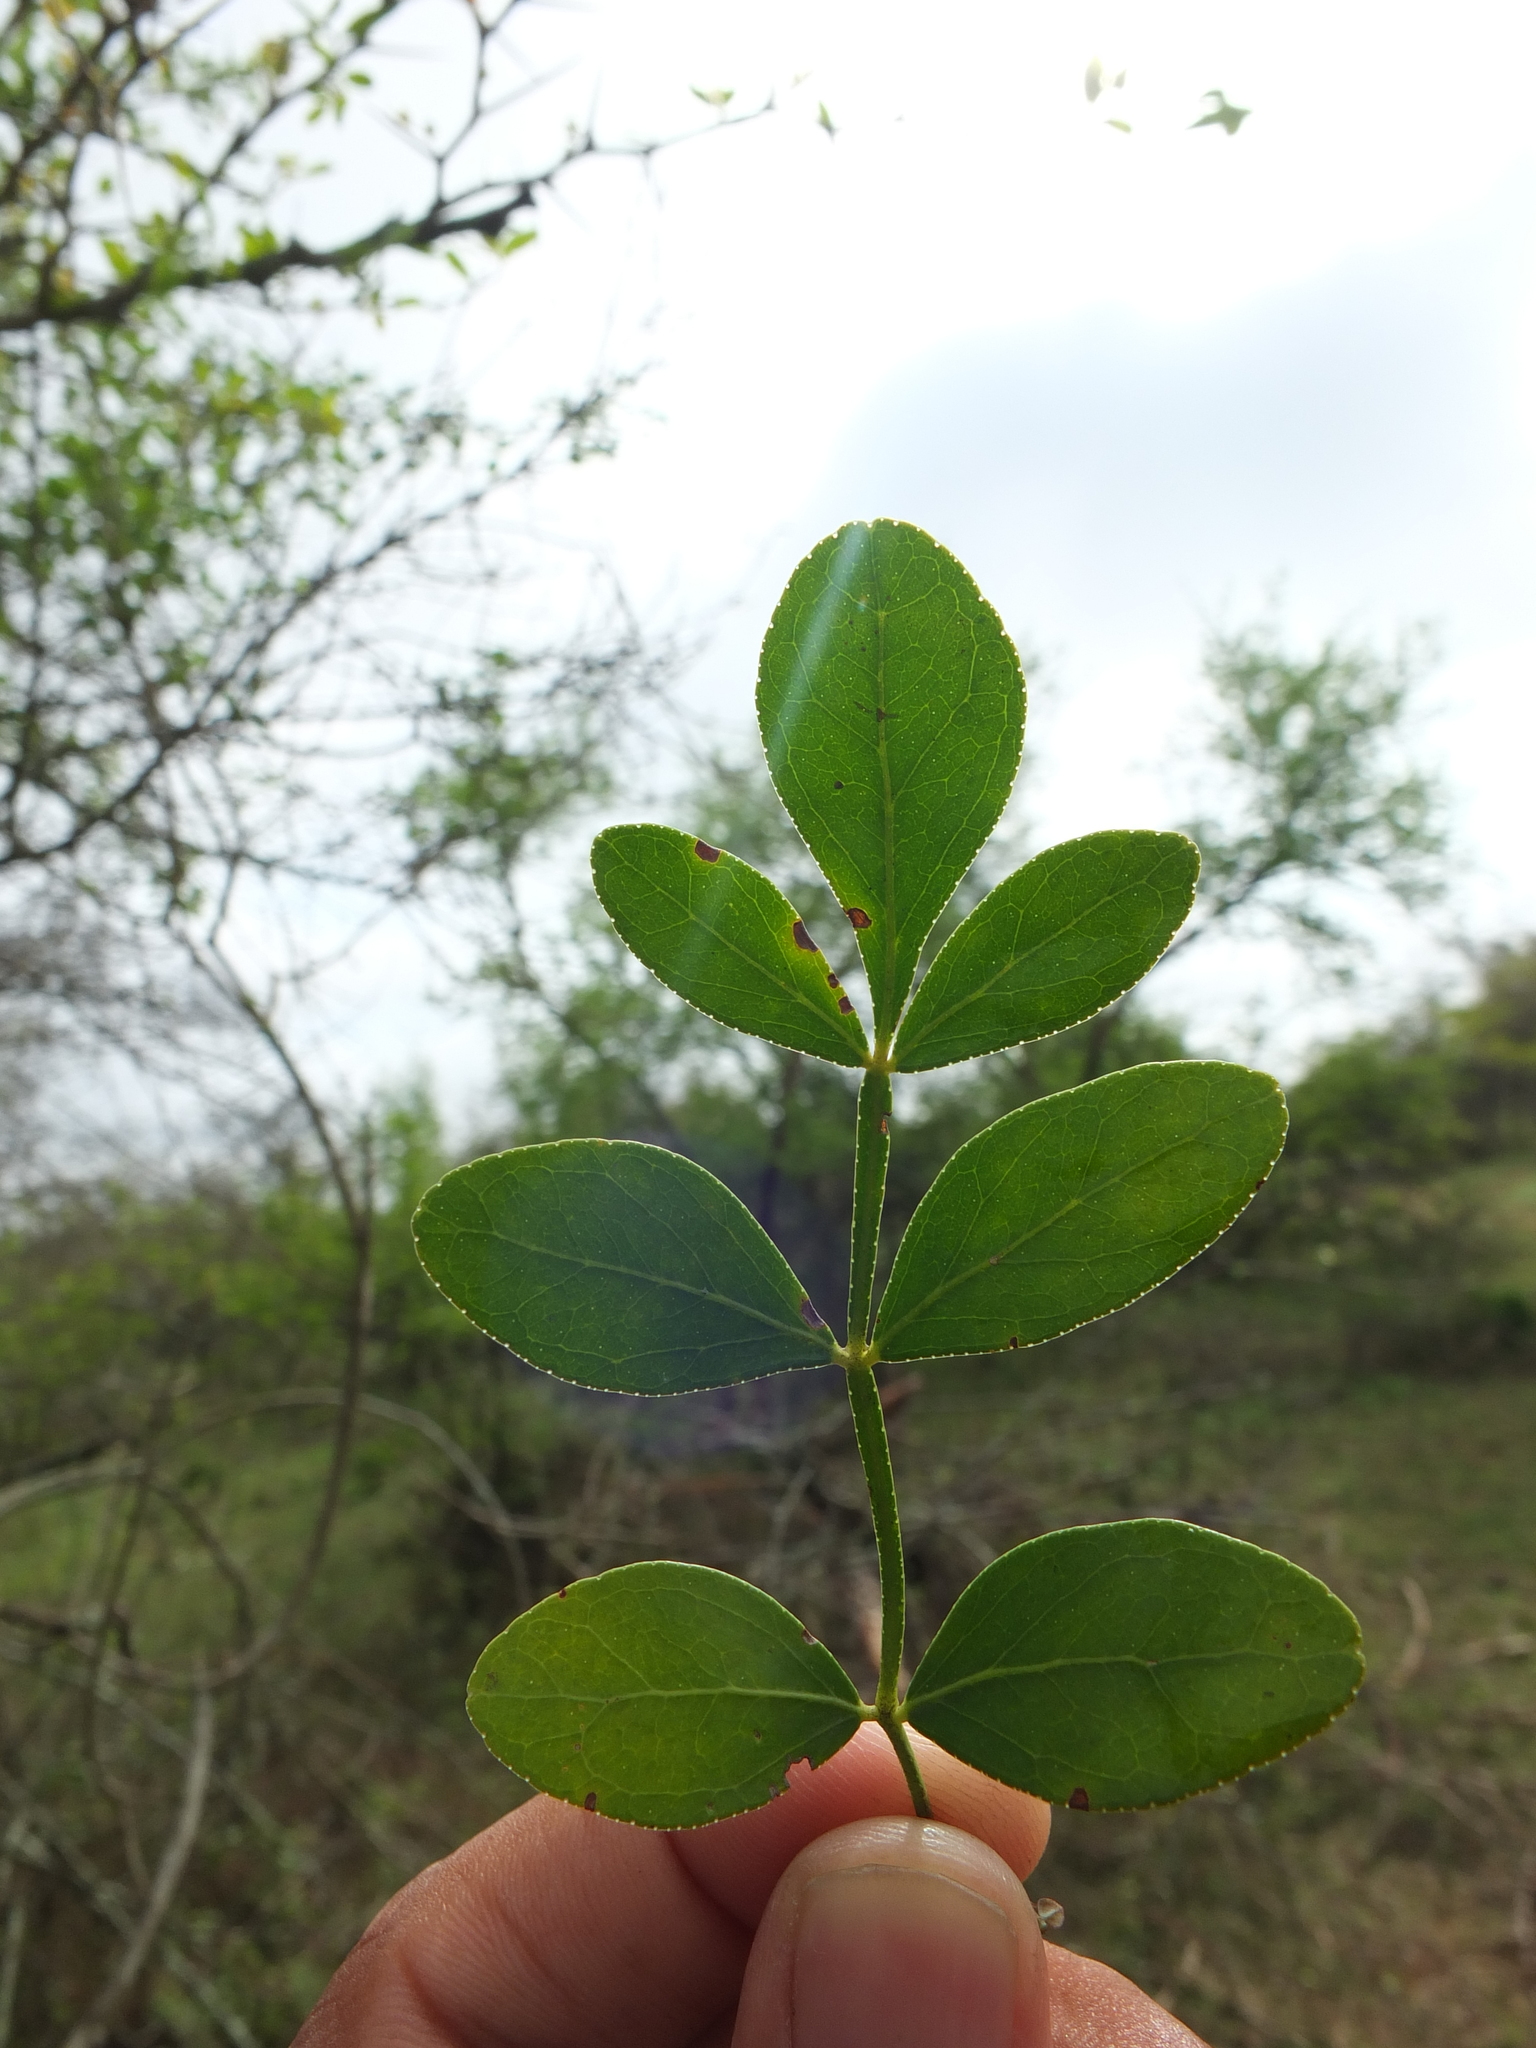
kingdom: Plantae
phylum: Tracheophyta
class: Magnoliopsida
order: Sapindales
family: Rutaceae
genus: Limonia
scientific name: Limonia acidissima
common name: Elephant apple
